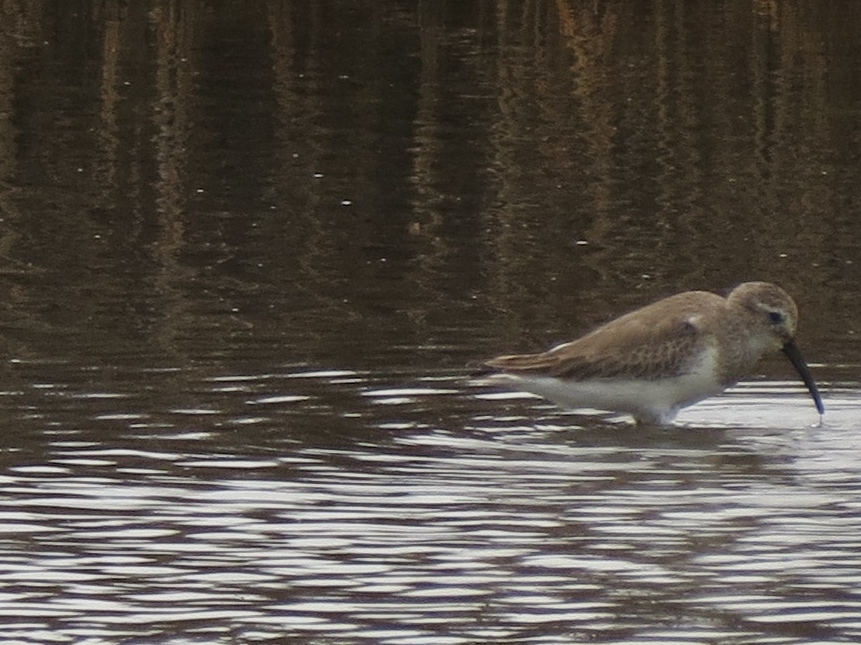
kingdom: Animalia
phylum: Chordata
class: Aves
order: Charadriiformes
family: Scolopacidae
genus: Calidris
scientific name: Calidris alpina
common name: Dunlin
